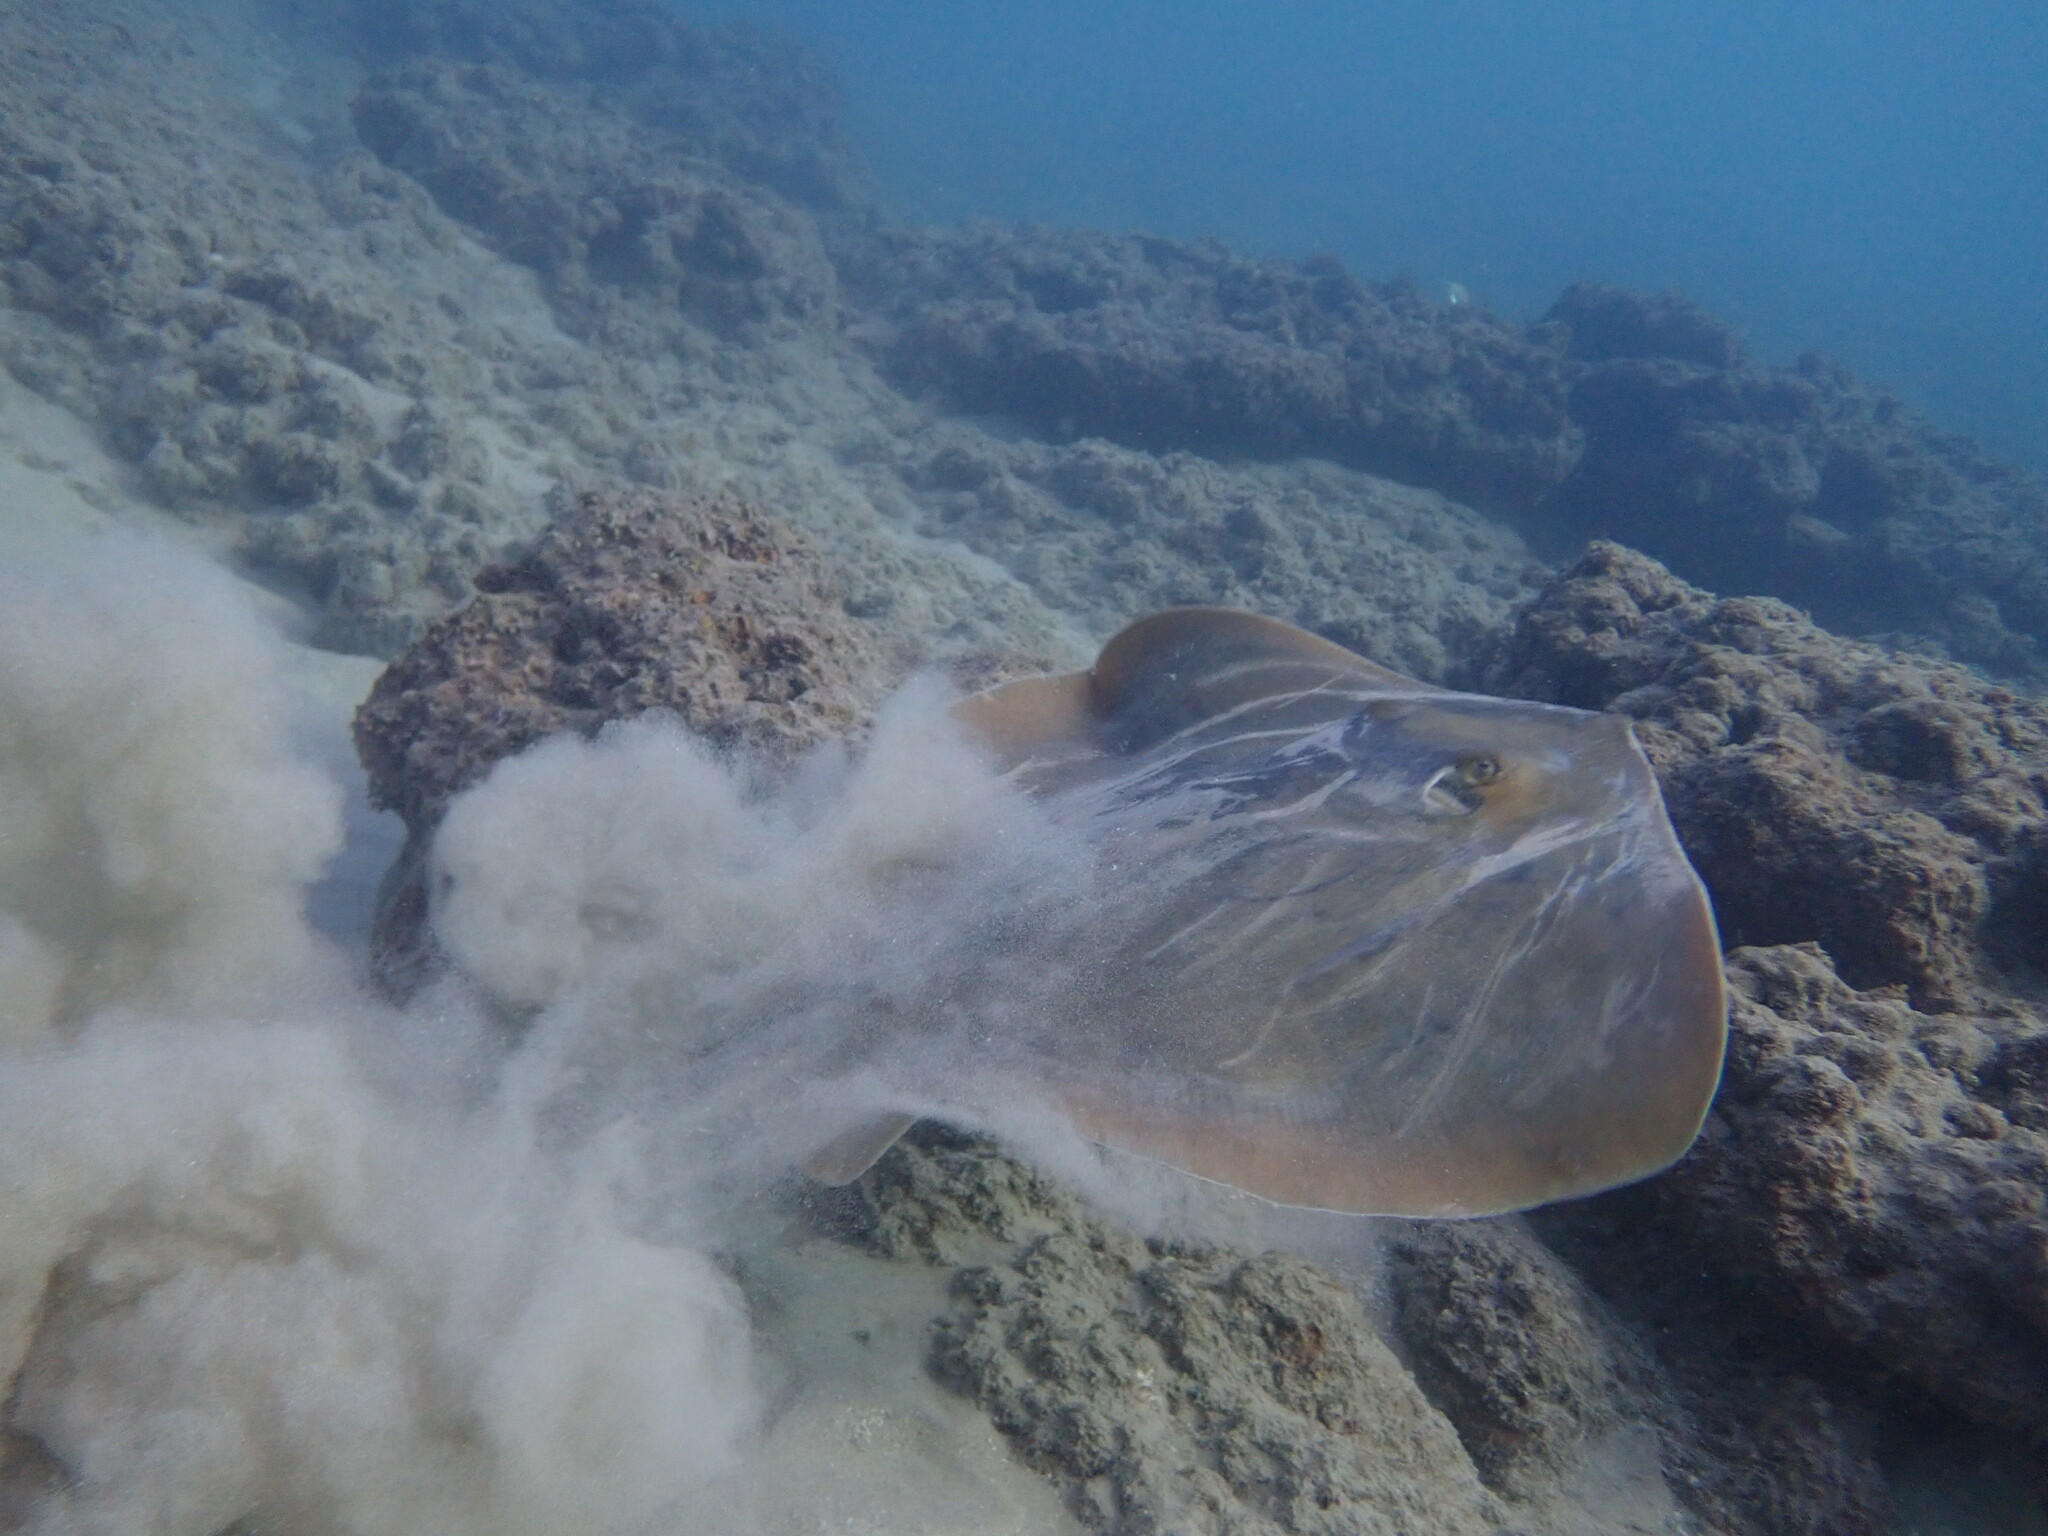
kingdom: Animalia
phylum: Chordata
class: Elasmobranchii
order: Myliobatiformes
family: Dasyatidae
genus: Dasyatis
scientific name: Dasyatis pastinaca
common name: Common stingray
